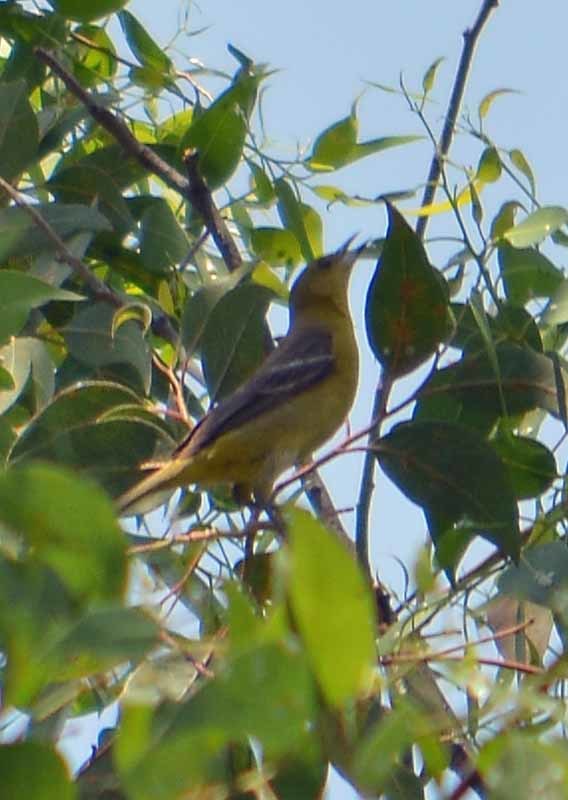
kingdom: Animalia
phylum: Chordata
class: Aves
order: Passeriformes
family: Cardinalidae
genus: Piranga
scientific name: Piranga ludoviciana
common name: Western tanager
